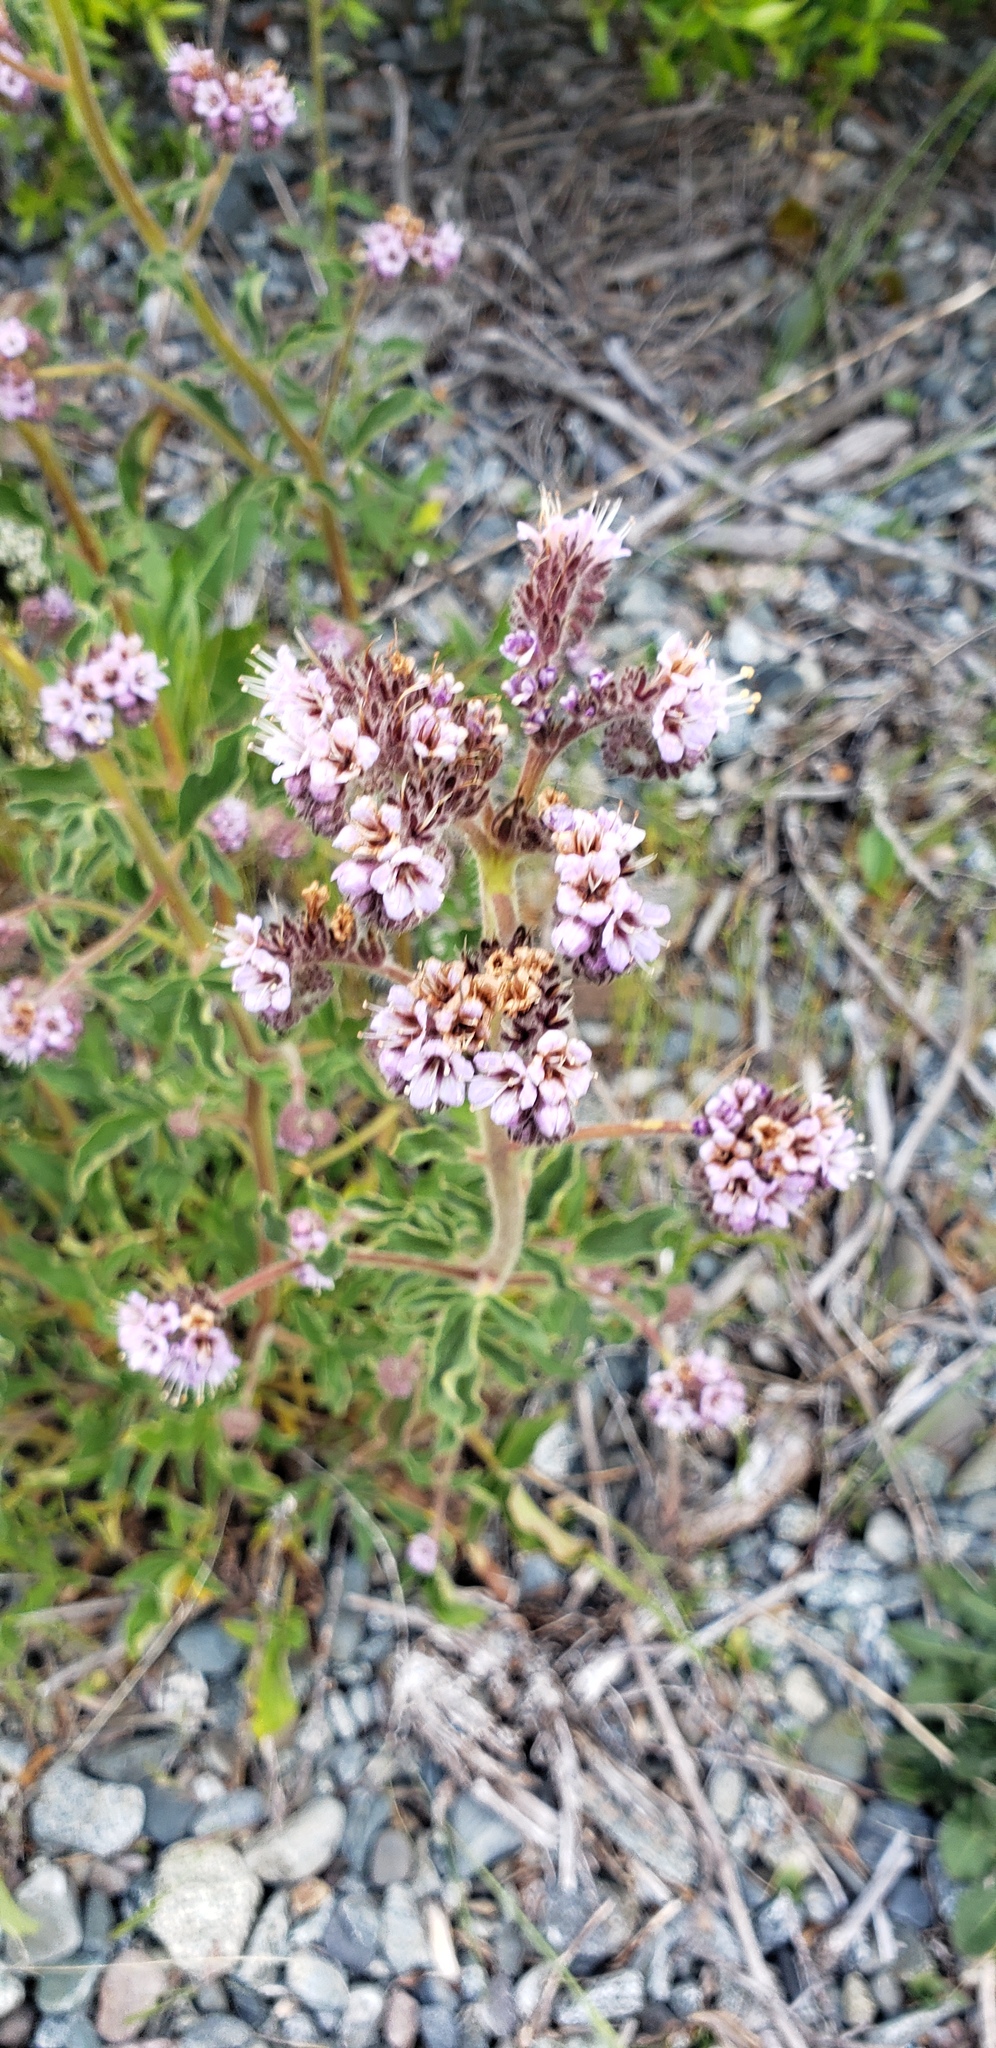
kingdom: Plantae
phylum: Tracheophyta
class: Magnoliopsida
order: Boraginales
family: Hydrophyllaceae
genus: Phacelia
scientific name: Phacelia secunda
